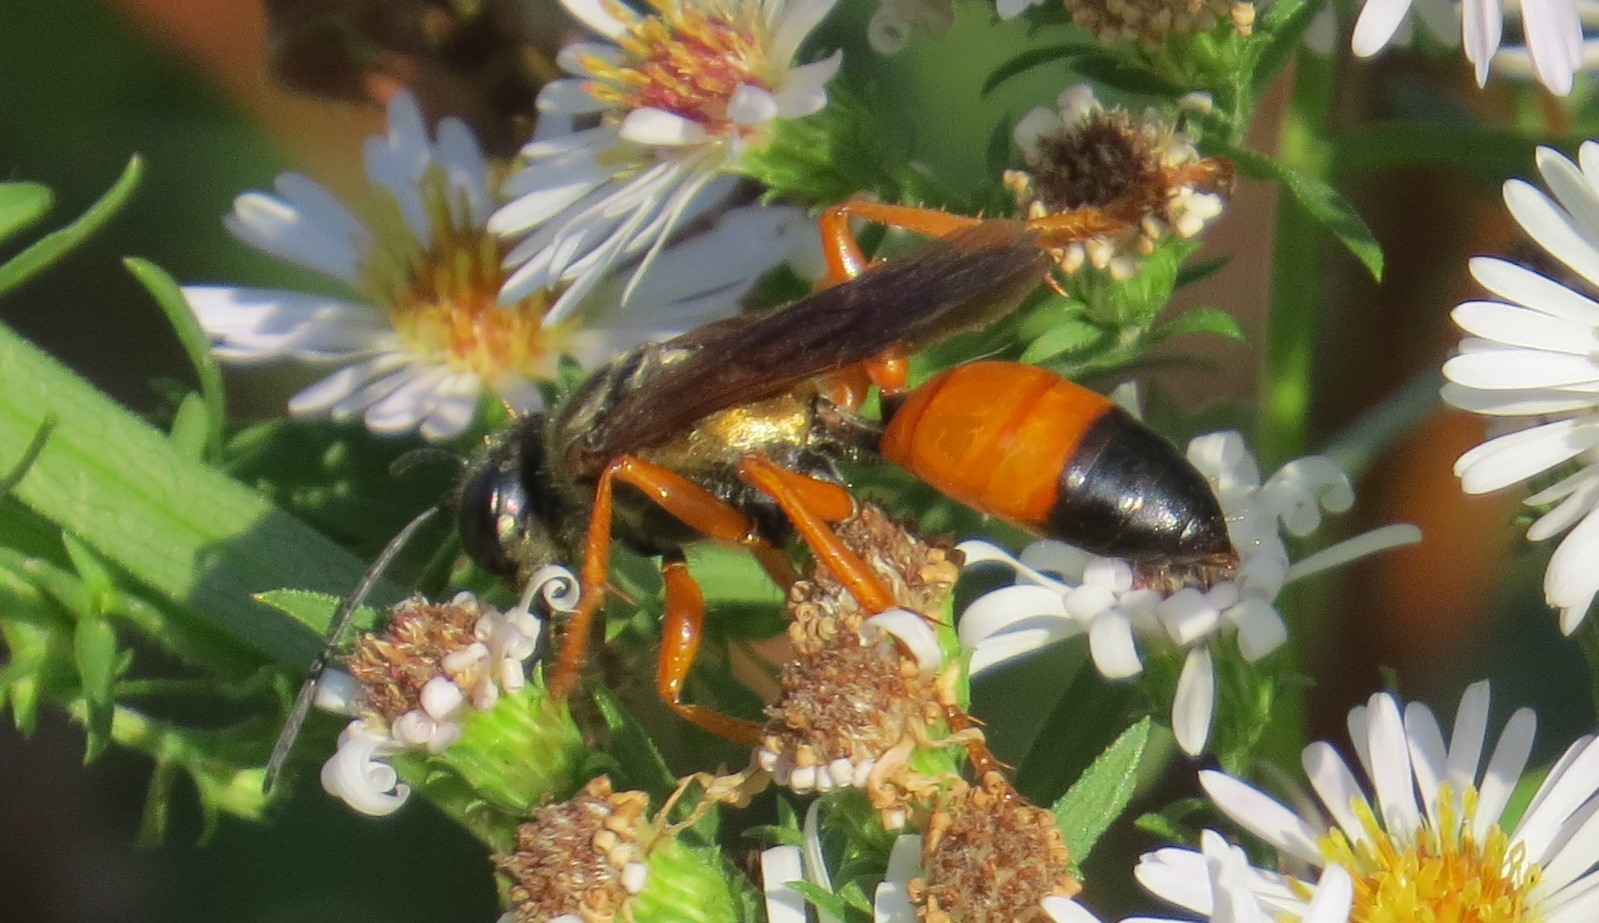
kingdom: Animalia
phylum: Arthropoda
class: Insecta
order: Hymenoptera
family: Sphecidae
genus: Sphex
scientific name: Sphex ichneumoneus
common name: Great golden digger wasp
